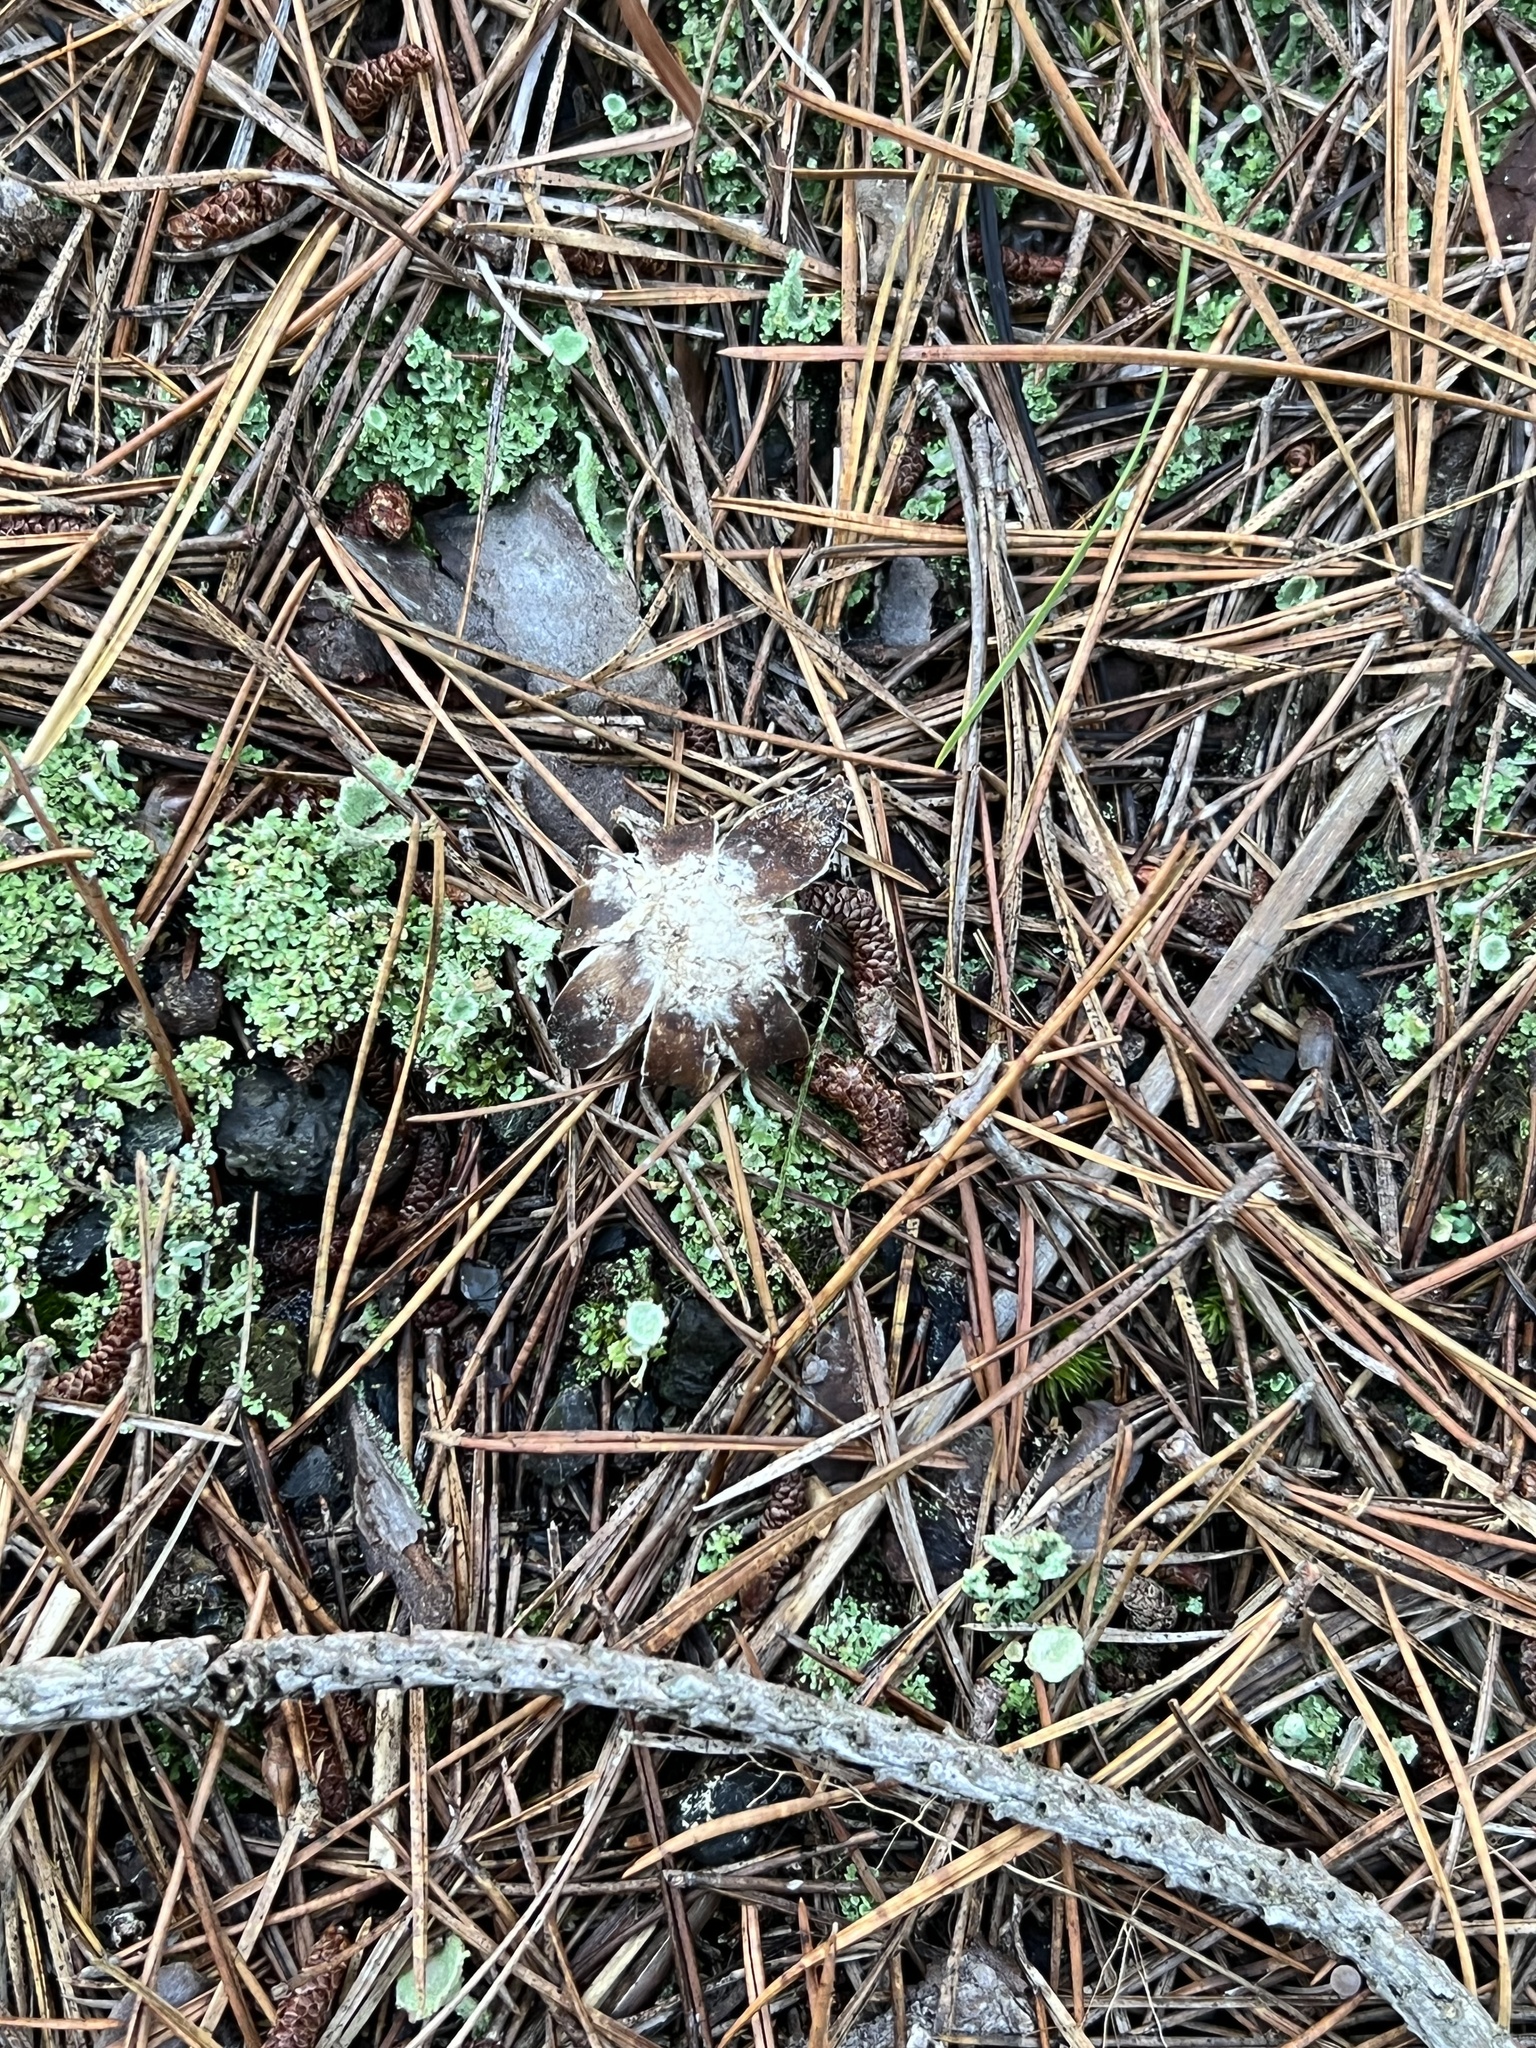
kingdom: Fungi
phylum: Basidiomycota
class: Agaricomycetes
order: Boletales
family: Diplocystidiaceae
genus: Astraeus
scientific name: Astraeus smithii
